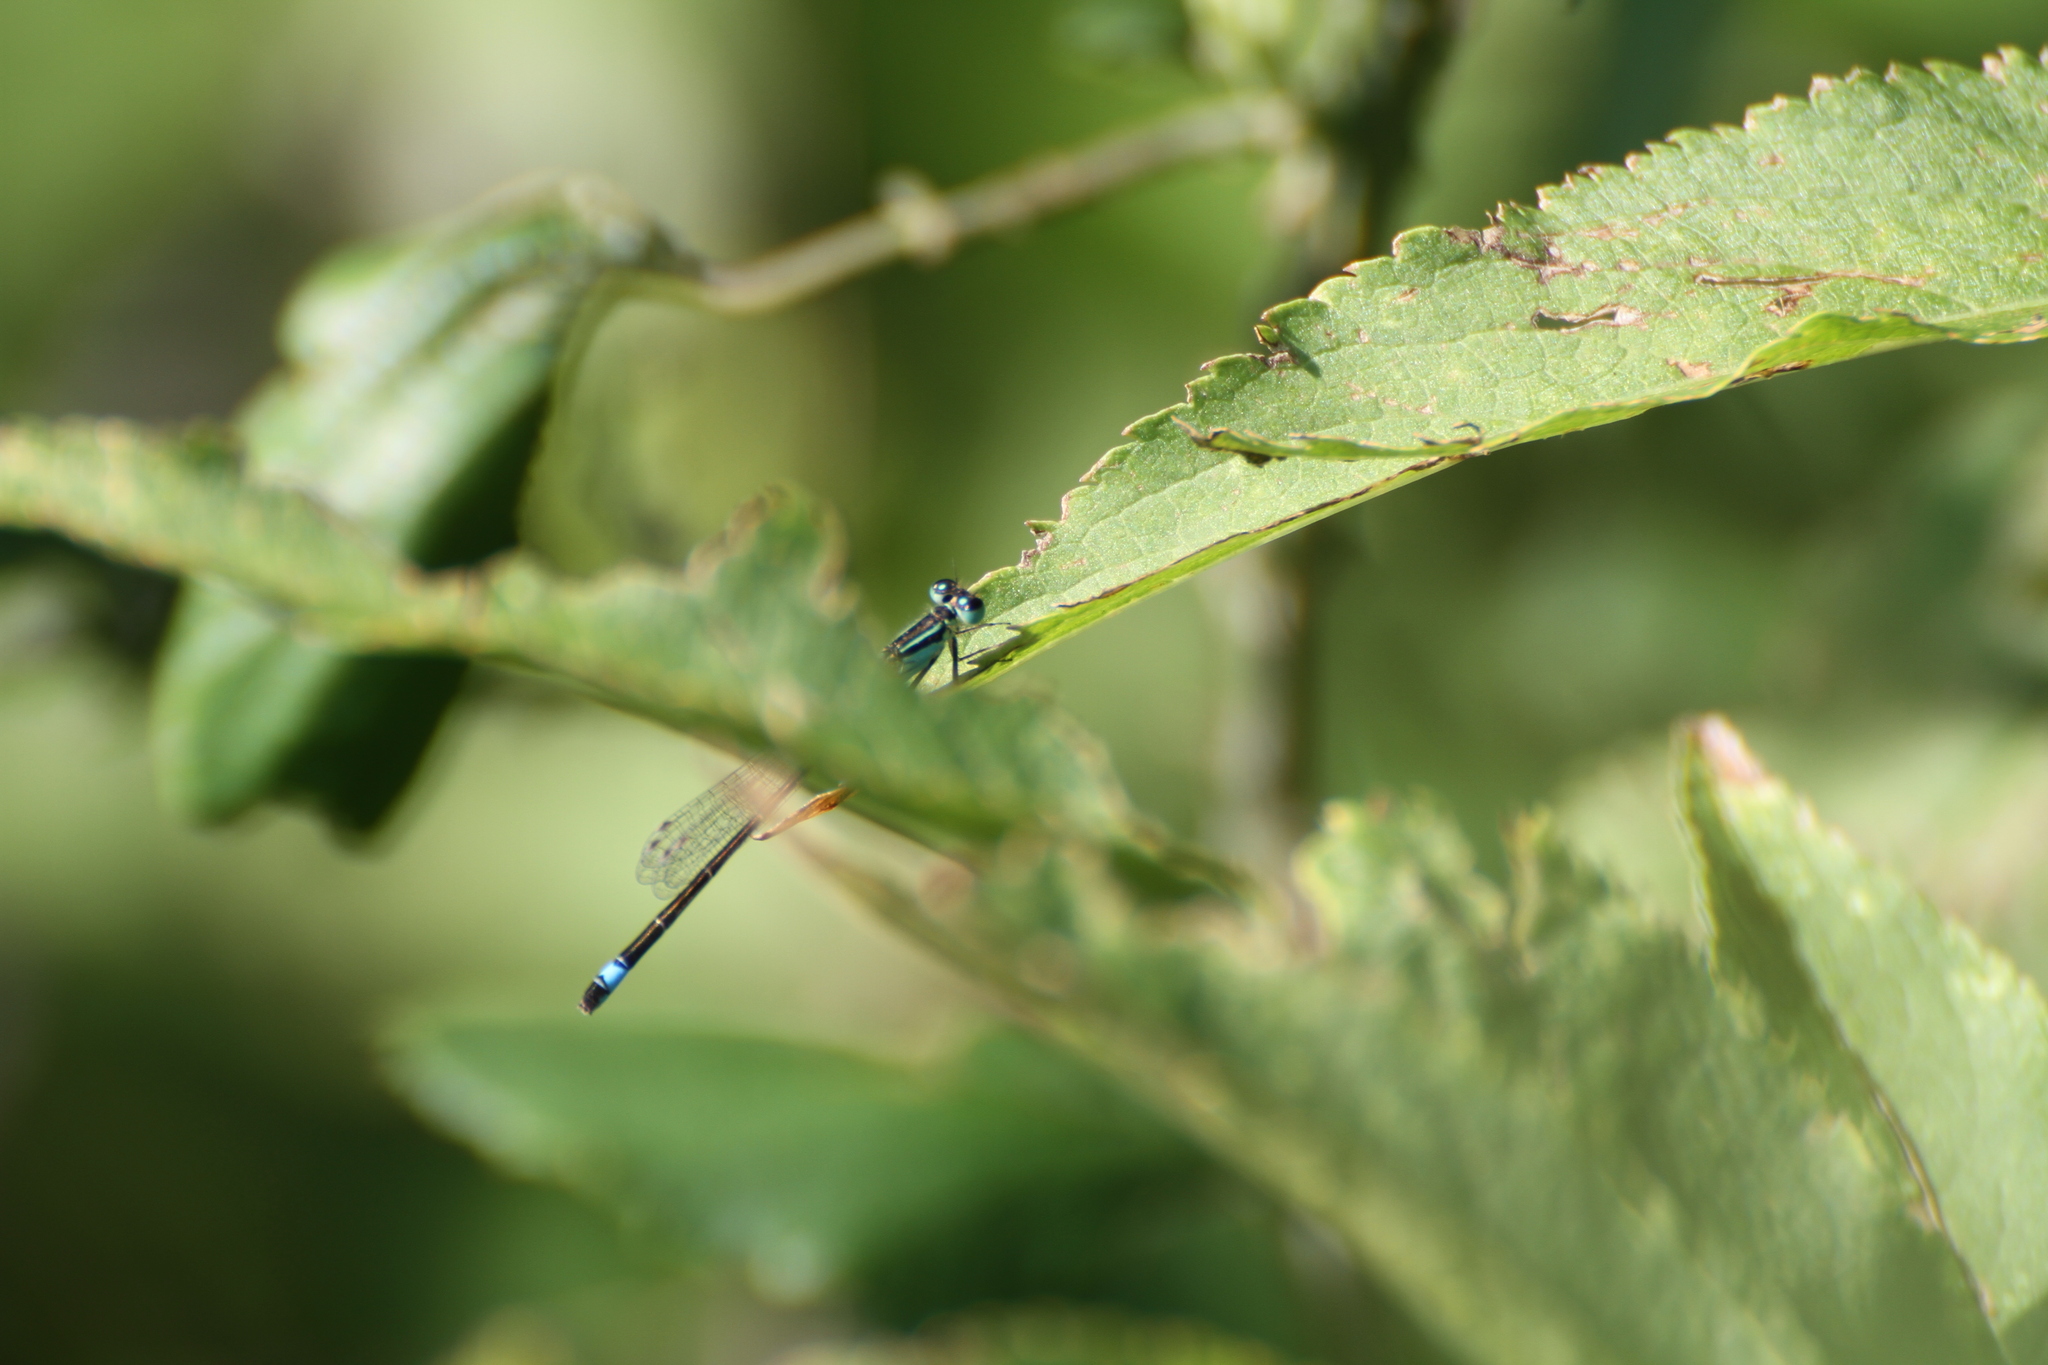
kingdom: Animalia
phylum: Arthropoda
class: Insecta
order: Odonata
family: Coenagrionidae
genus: Ischnura
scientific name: Ischnura elegans
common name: Blue-tailed damselfly
